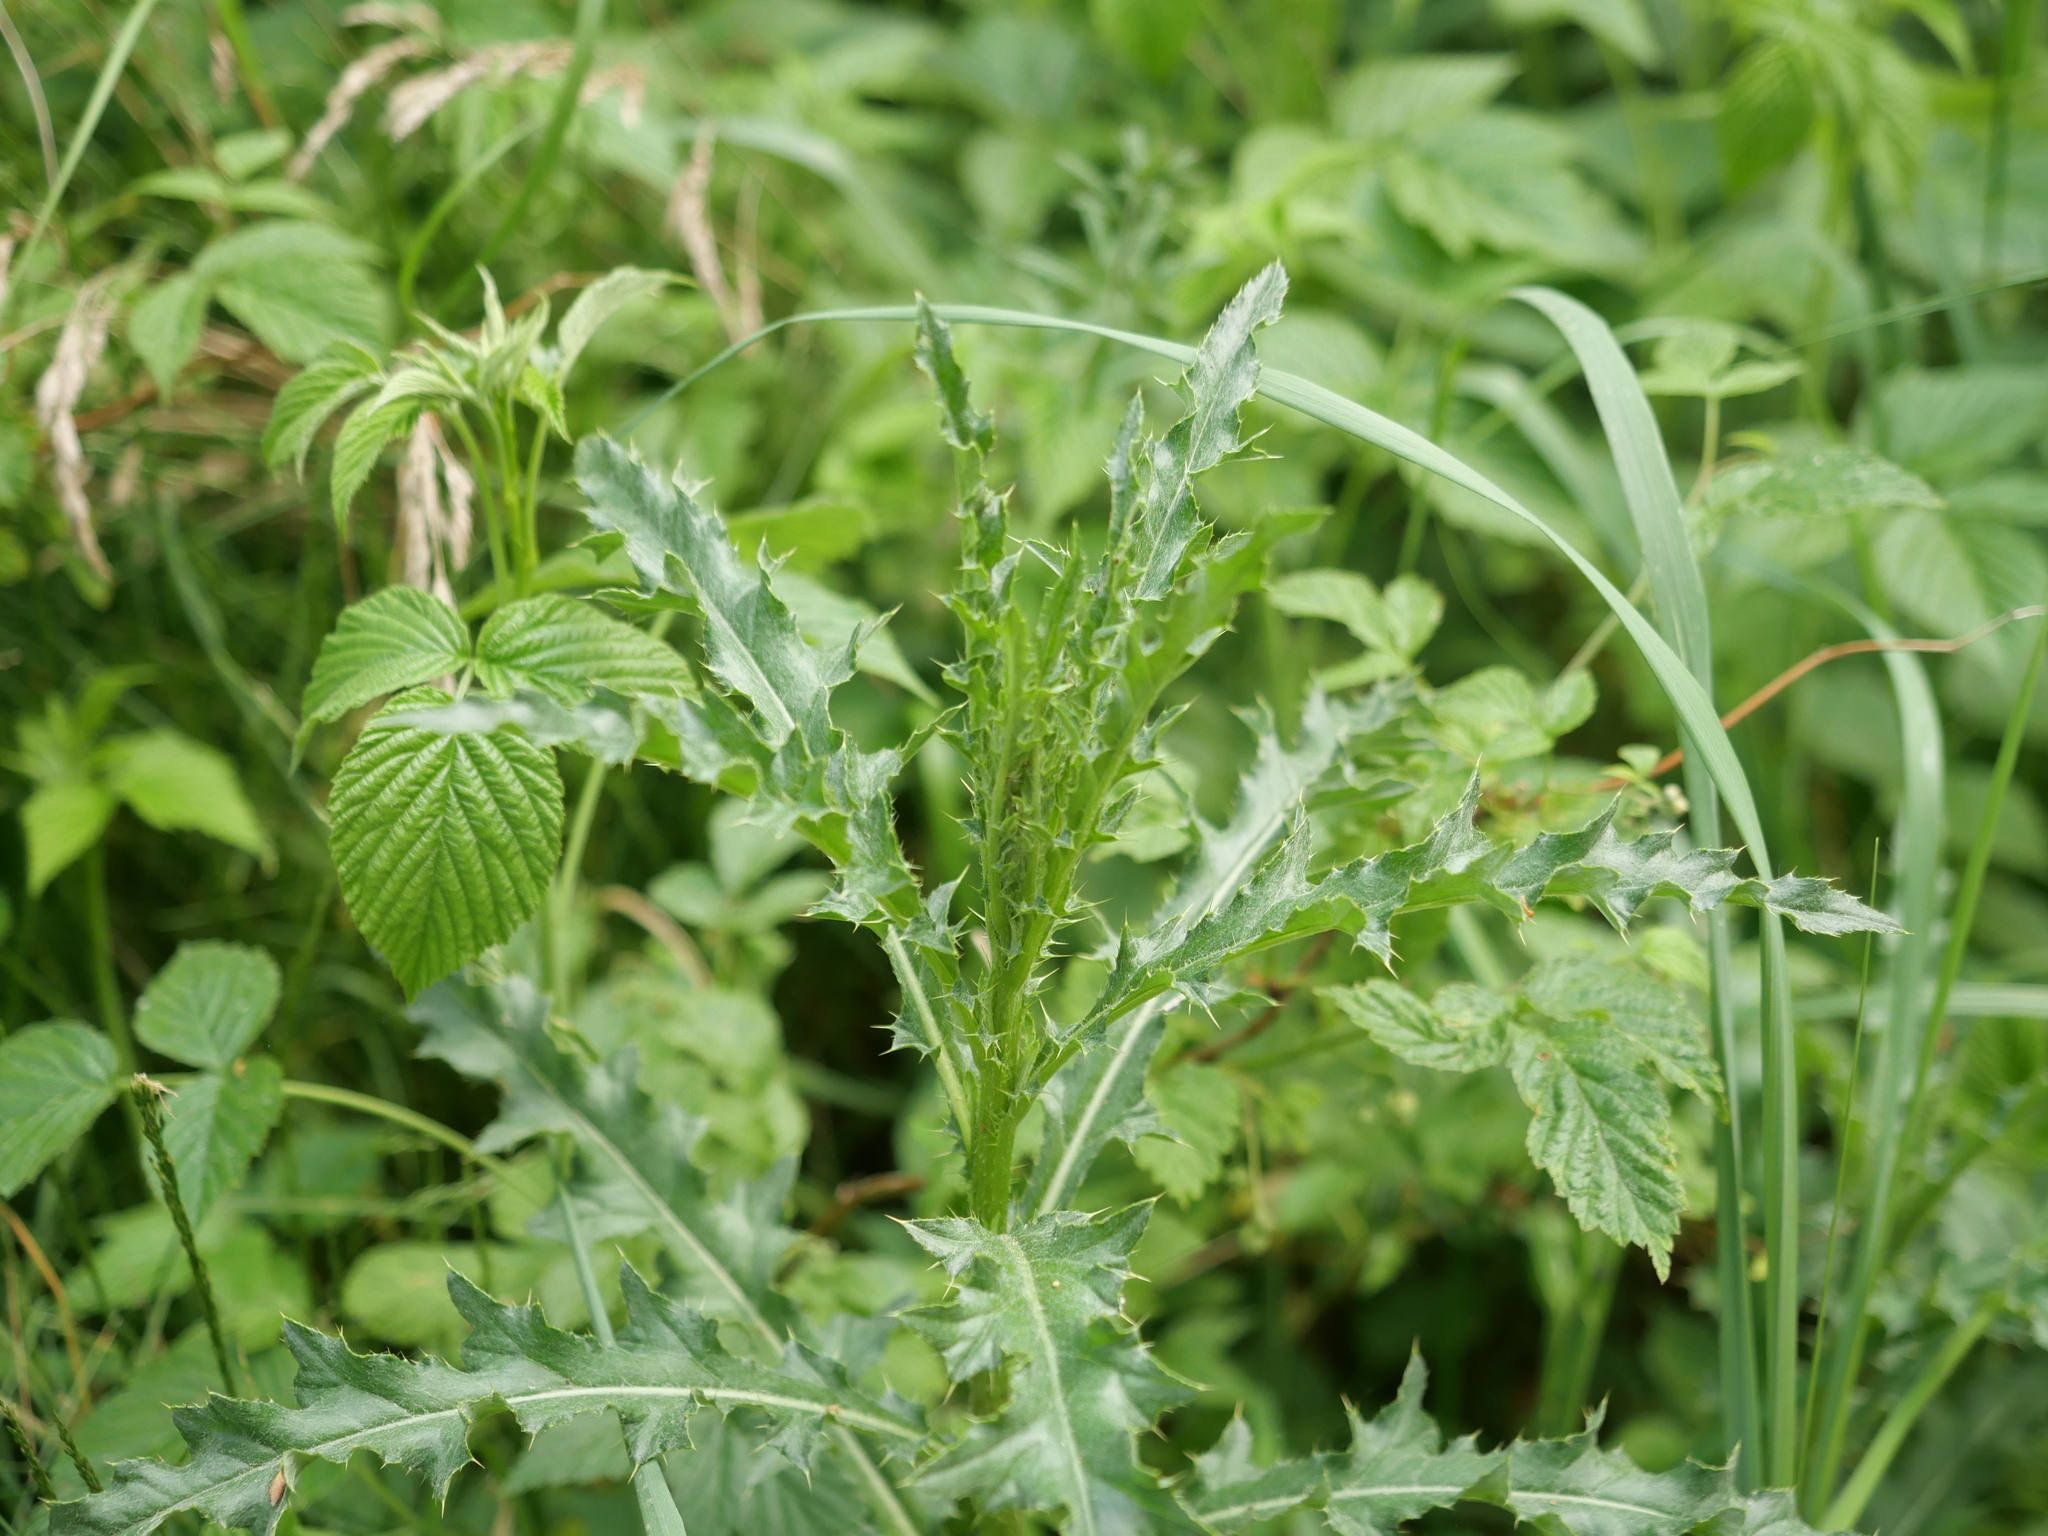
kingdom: Plantae
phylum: Tracheophyta
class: Magnoliopsida
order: Asterales
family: Asteraceae
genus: Cirsium
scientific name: Cirsium arvense
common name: Creeping thistle
